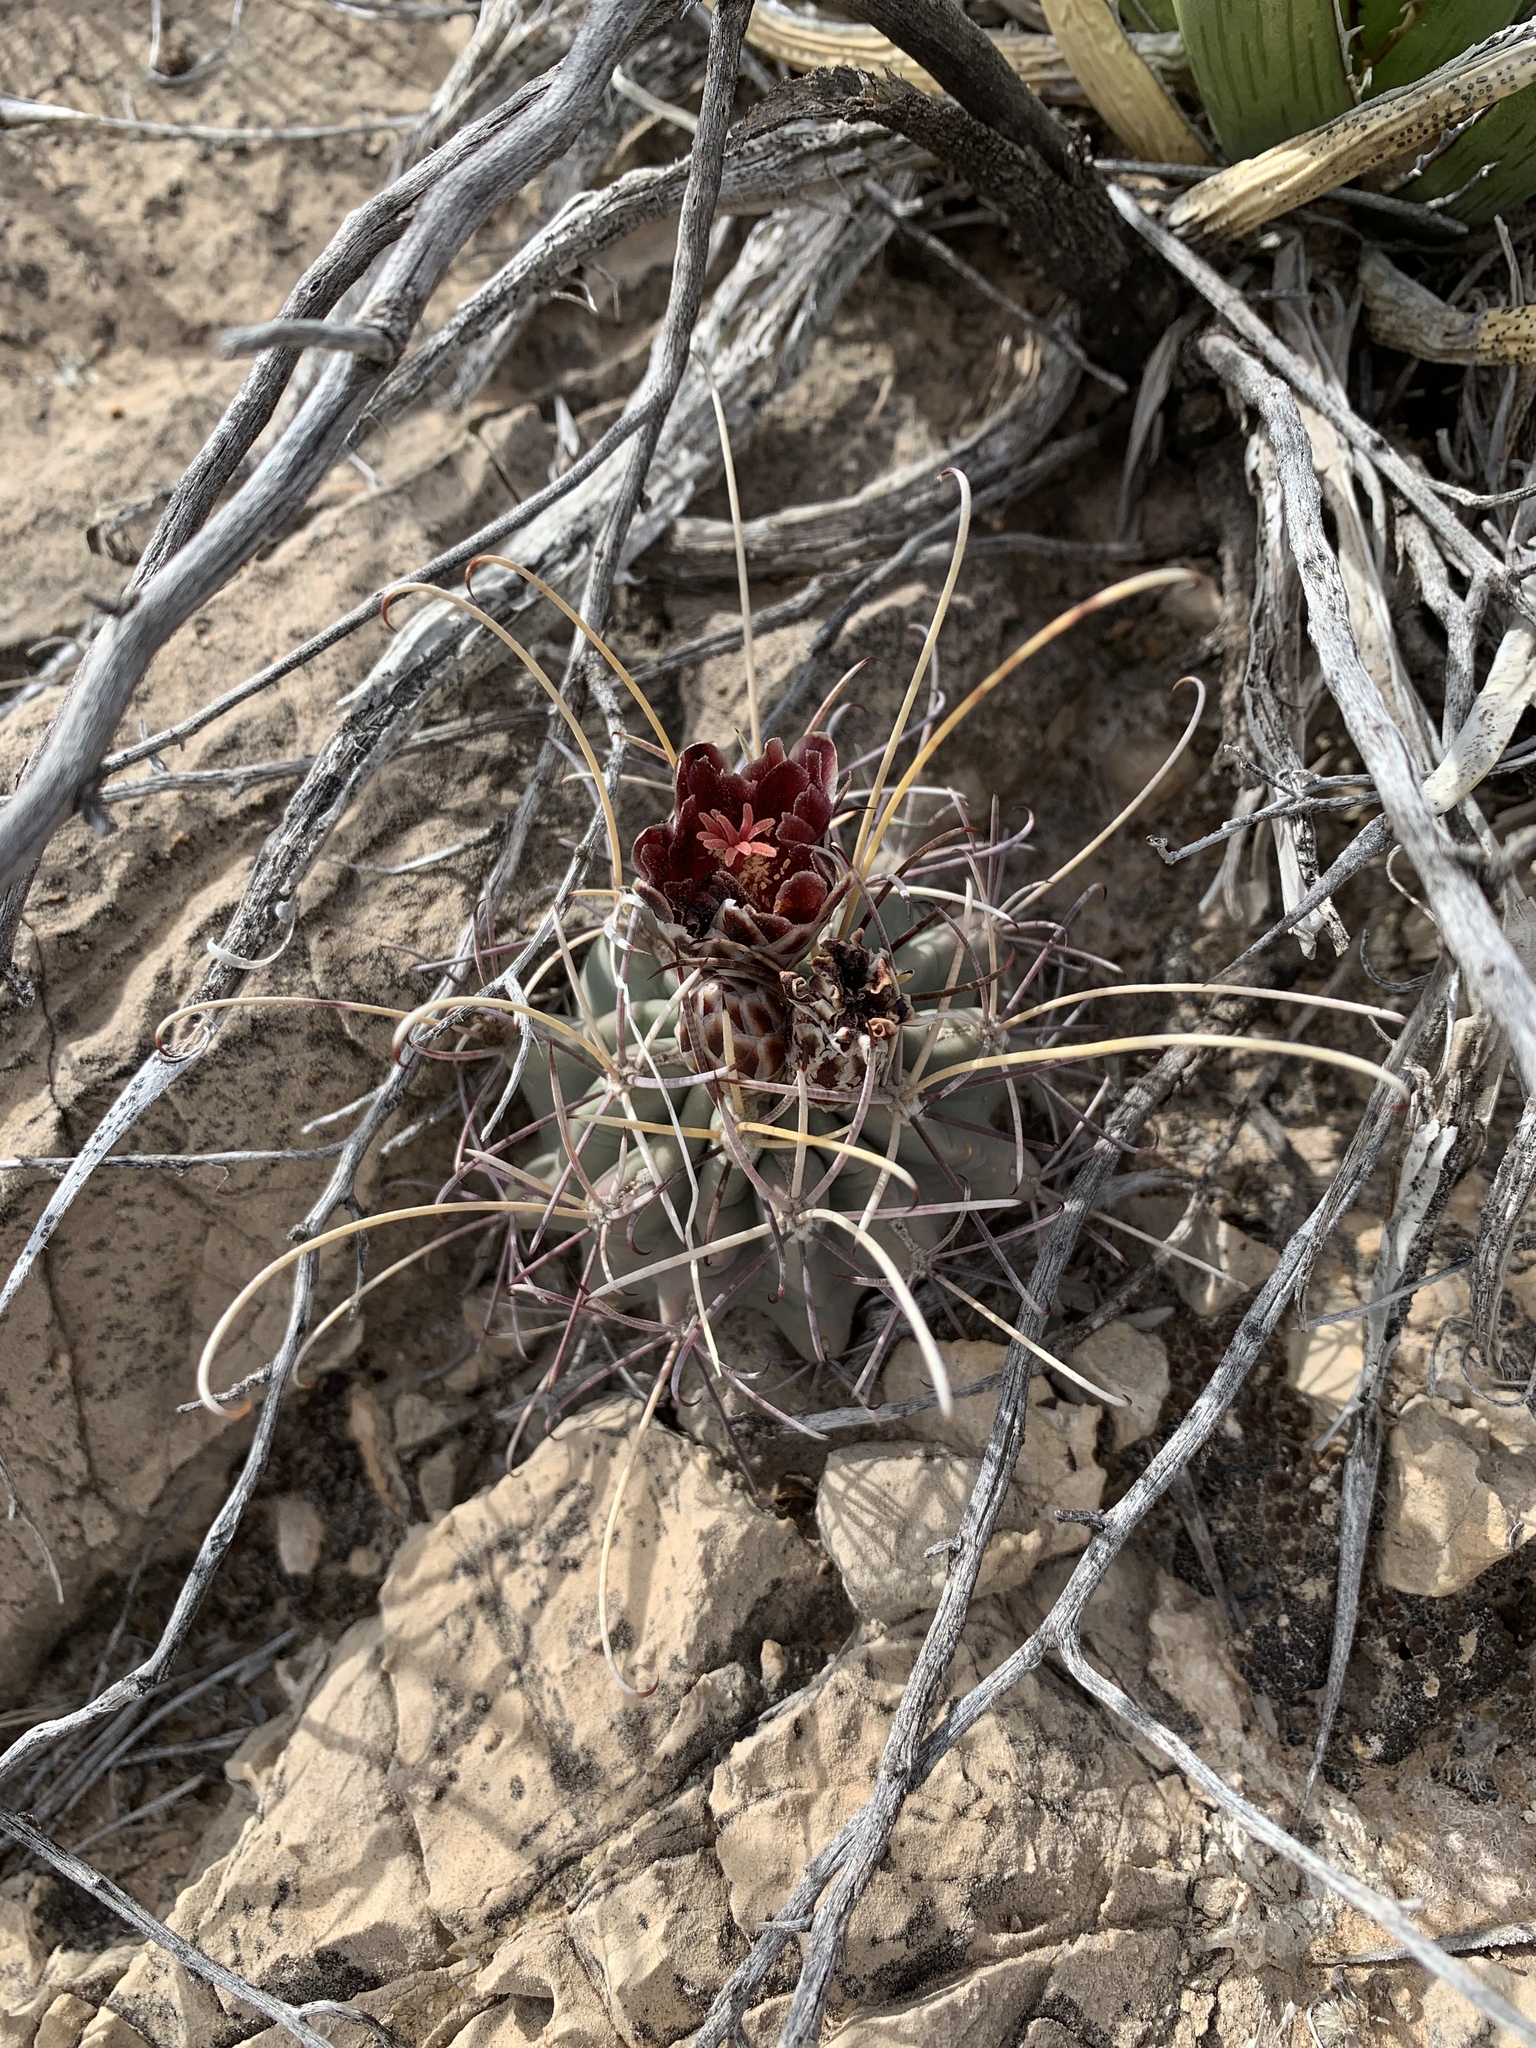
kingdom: Plantae
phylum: Tracheophyta
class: Magnoliopsida
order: Caryophyllales
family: Cactaceae
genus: Ferocactus
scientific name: Ferocactus uncinatus
